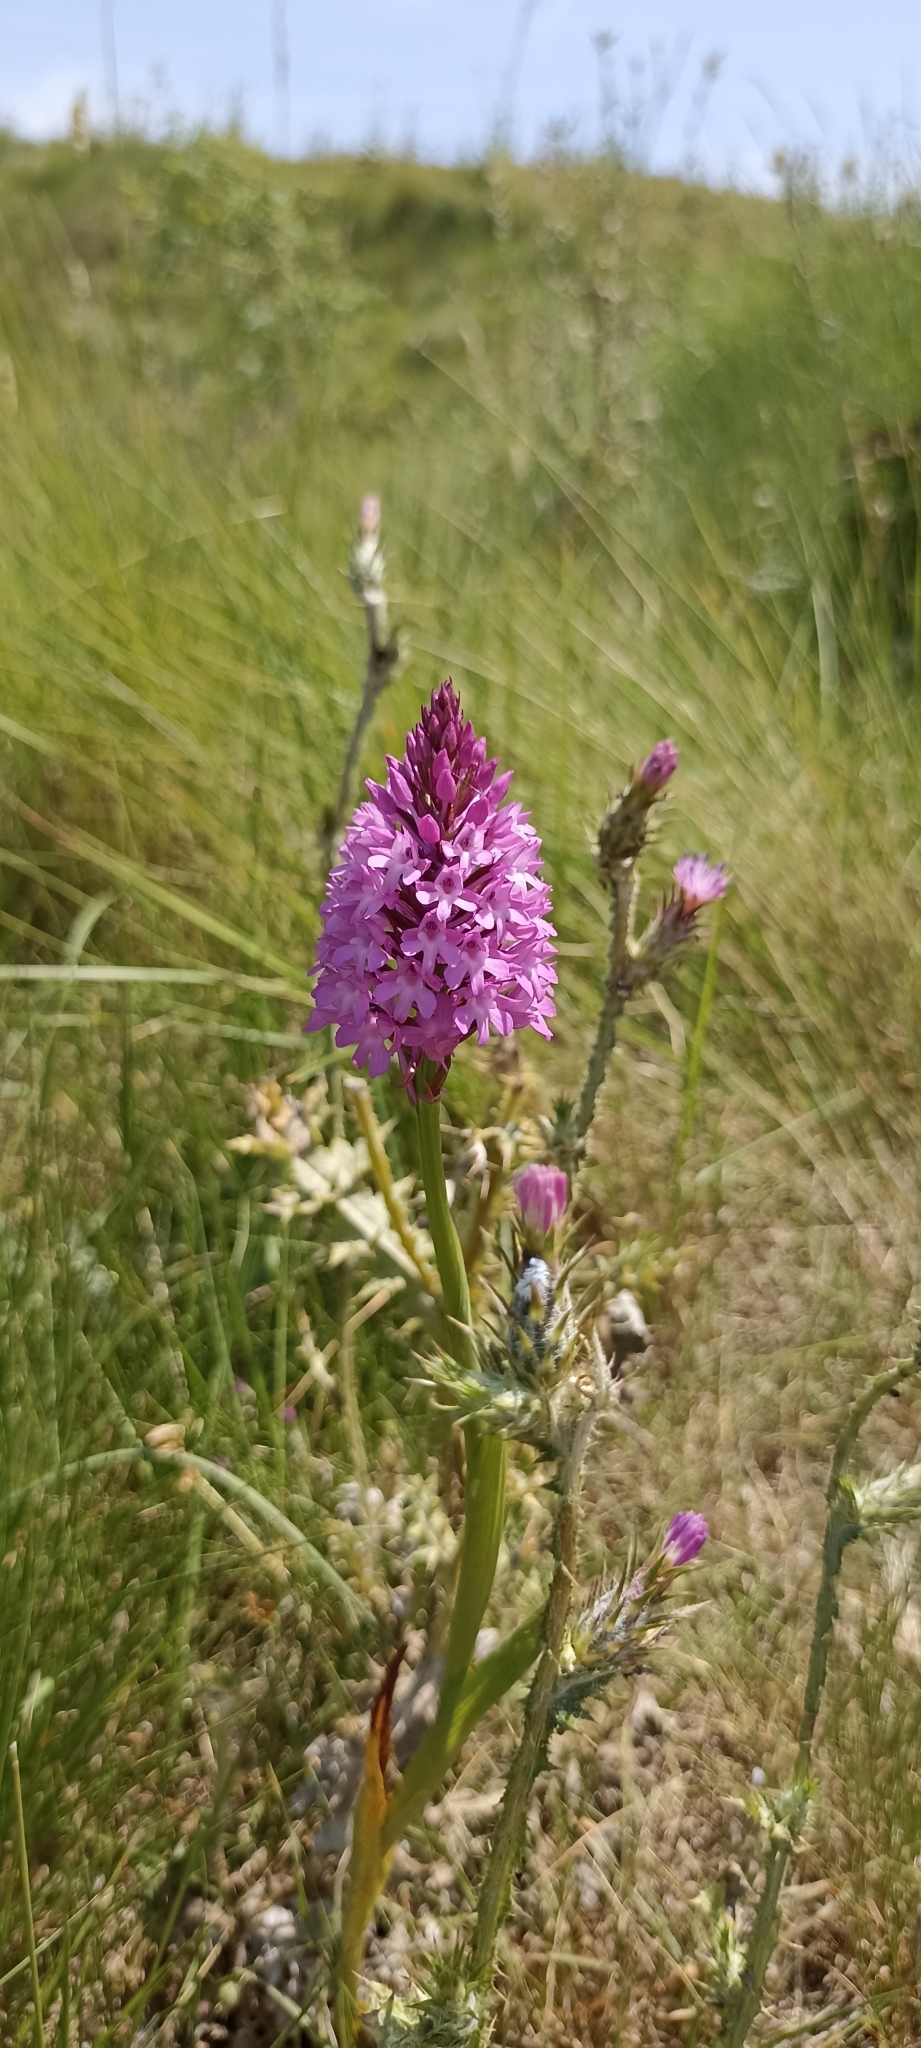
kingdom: Plantae
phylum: Tracheophyta
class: Liliopsida
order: Asparagales
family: Orchidaceae
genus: Anacamptis
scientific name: Anacamptis pyramidalis
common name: Pyramidal orchid
